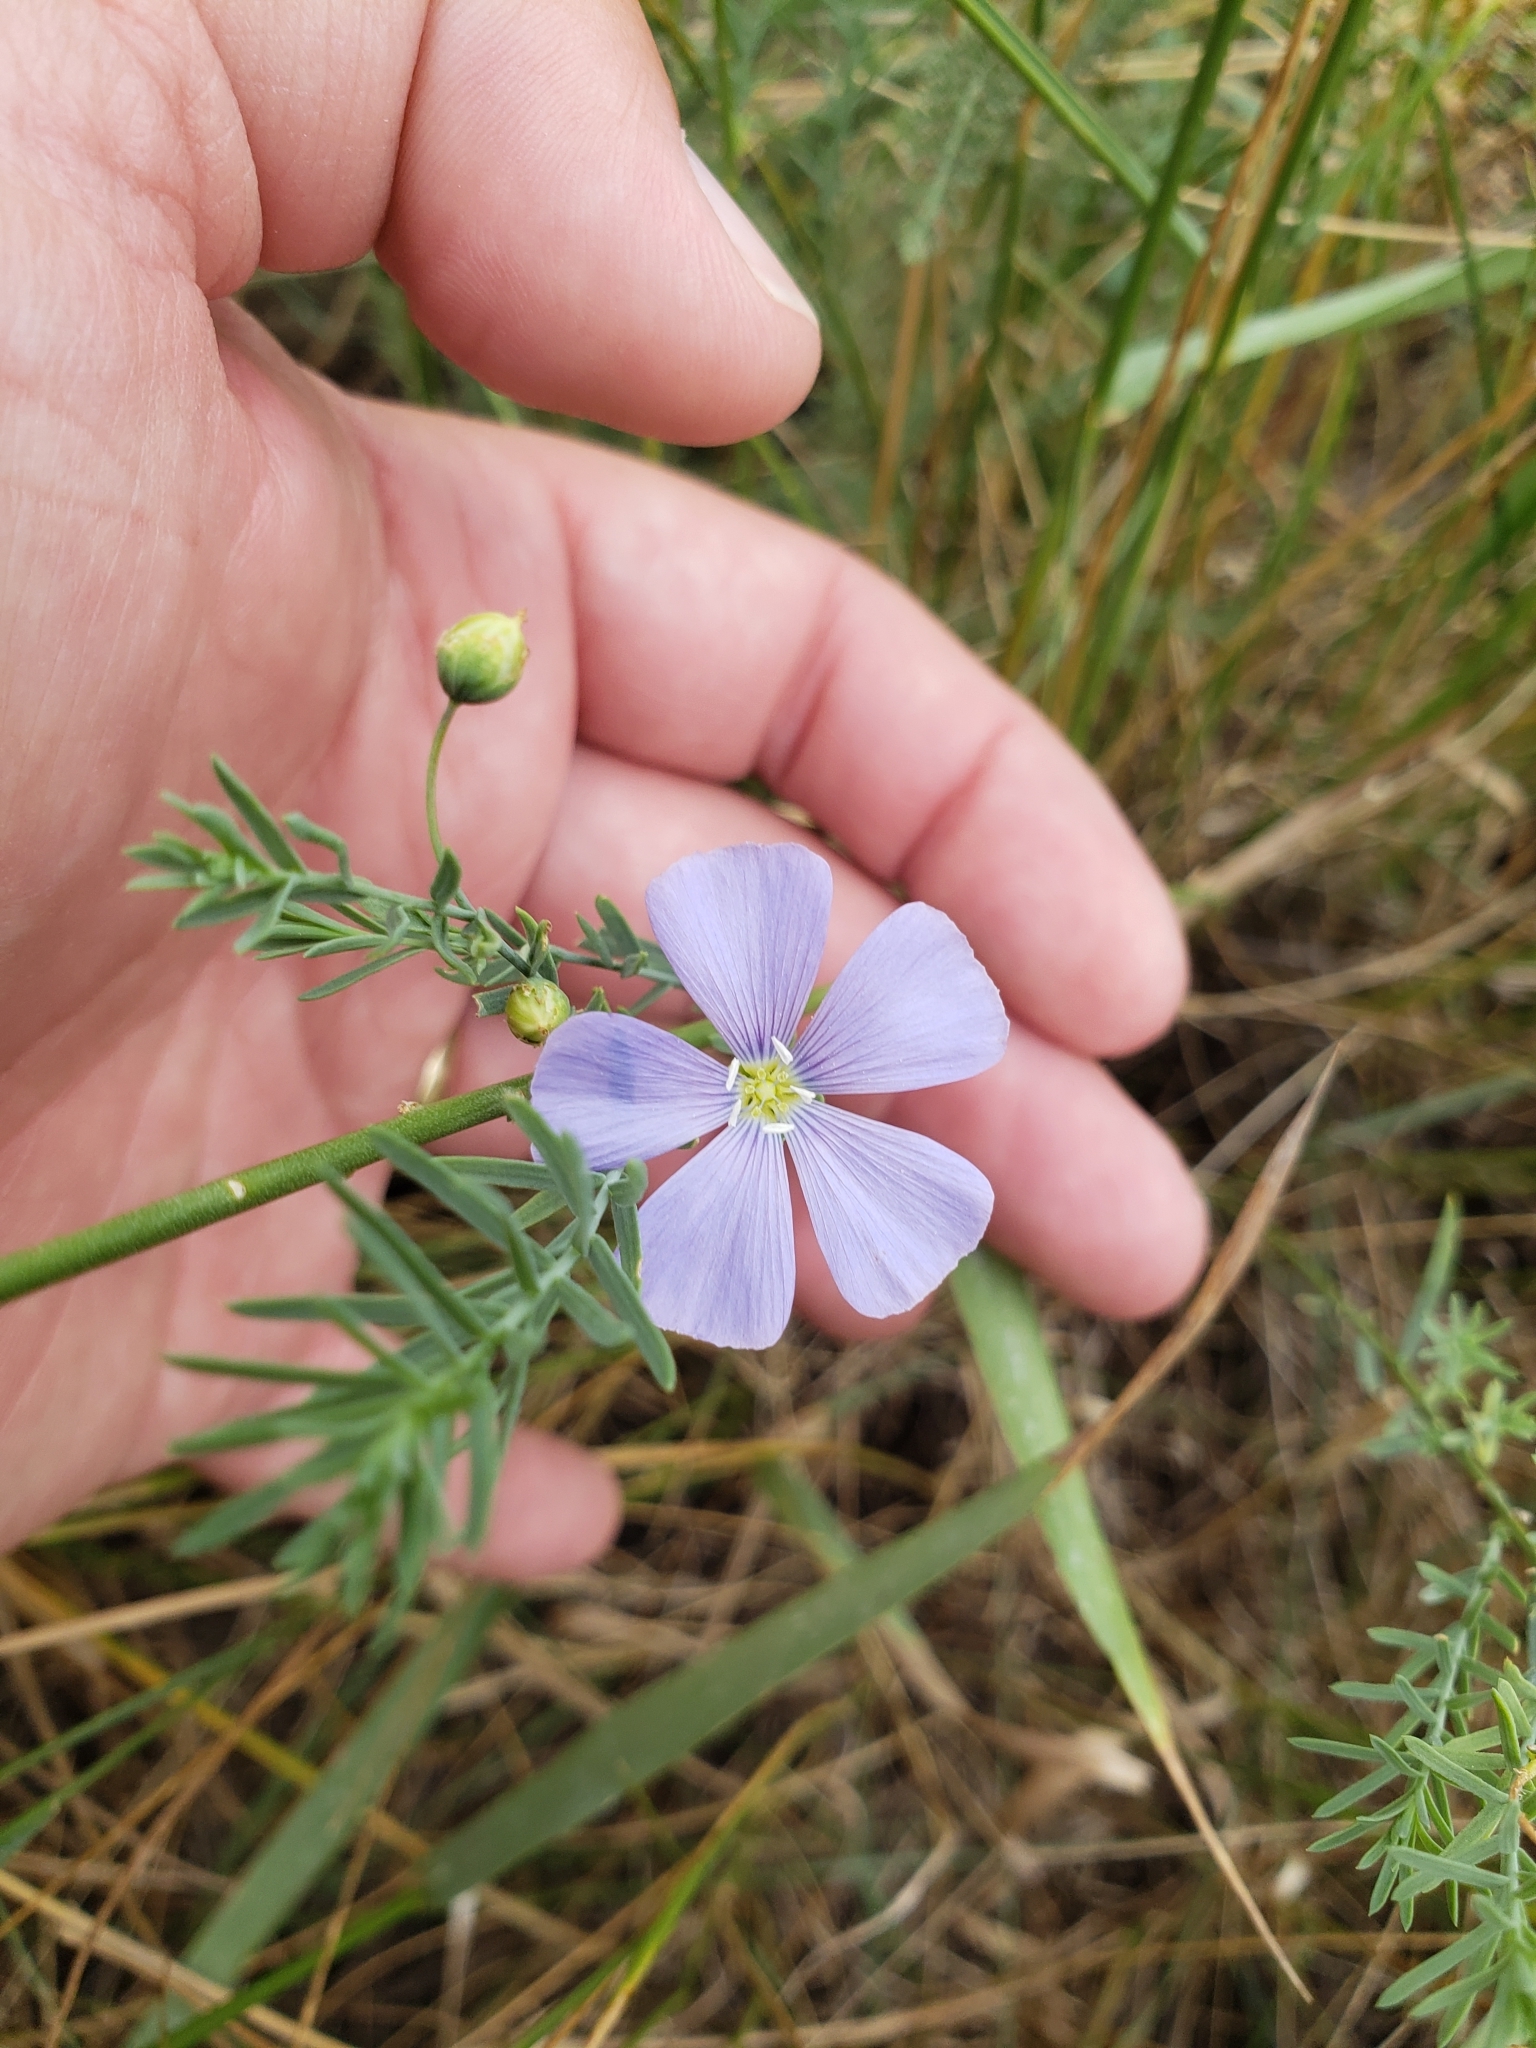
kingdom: Plantae
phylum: Tracheophyta
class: Magnoliopsida
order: Malpighiales
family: Linaceae
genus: Linum
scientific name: Linum lewisii
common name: Prairie flax
